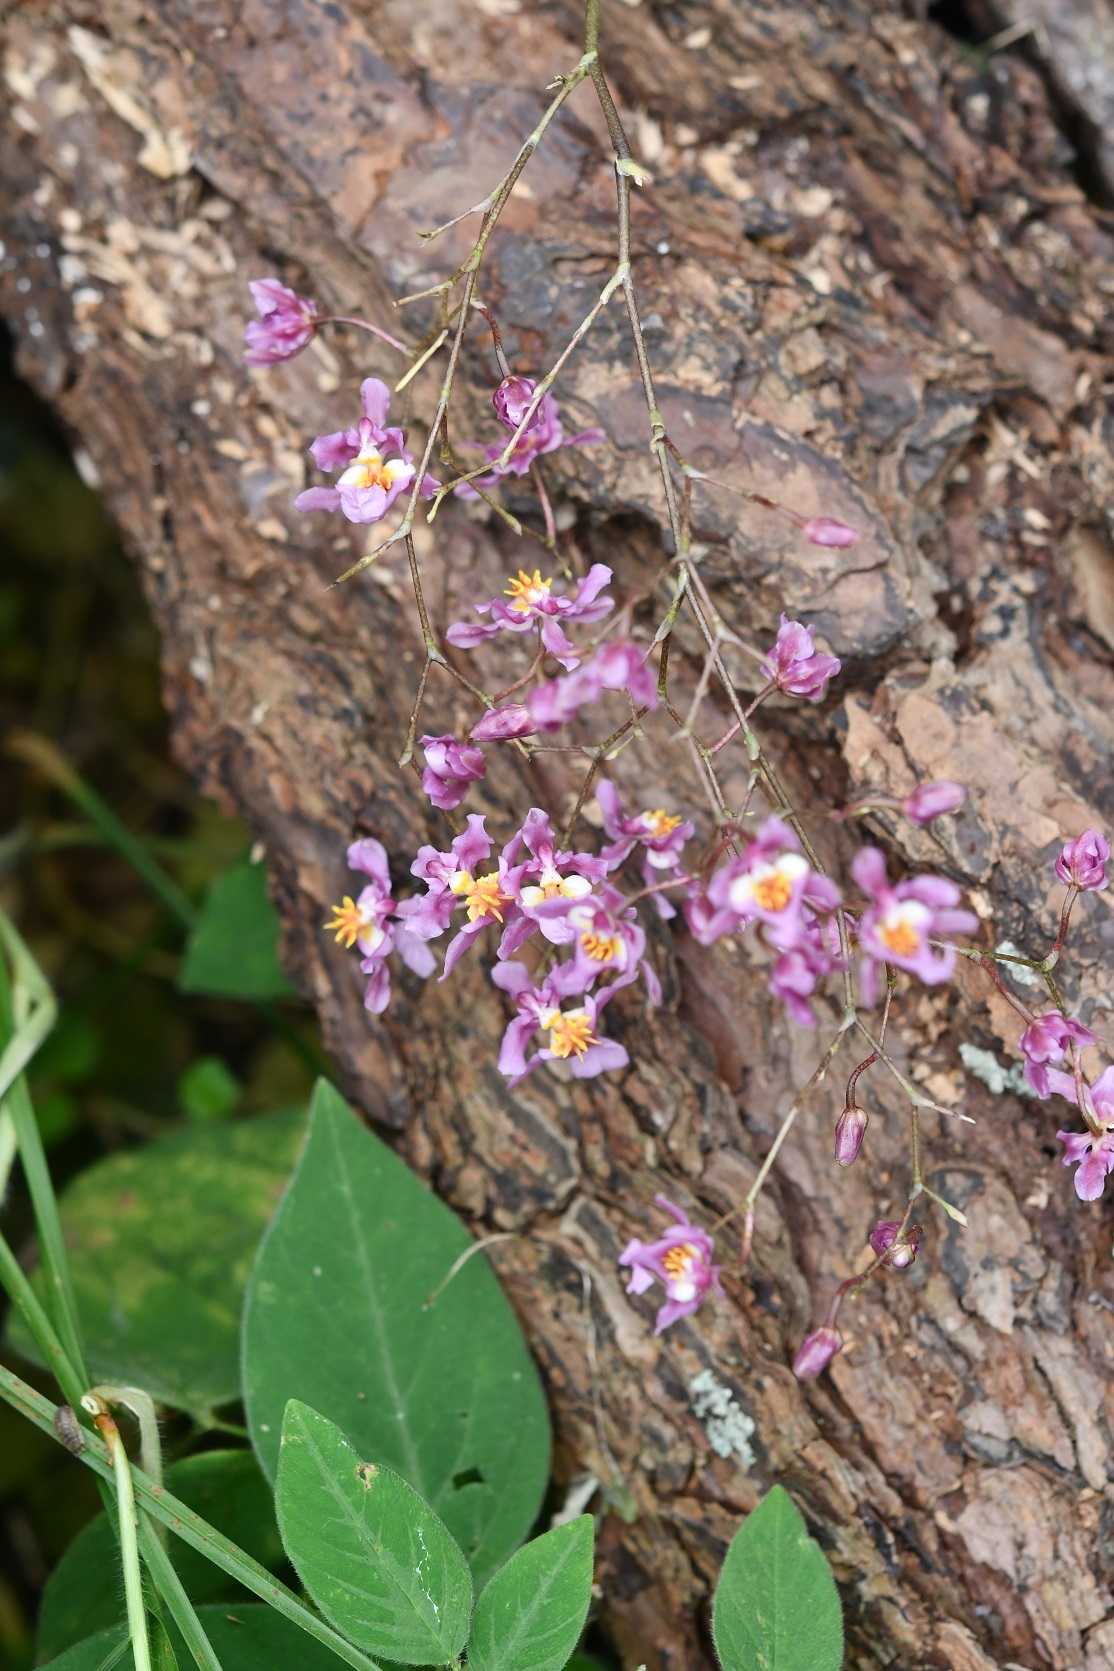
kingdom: Plantae
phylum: Tracheophyta
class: Liliopsida
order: Asparagales
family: Orchidaceae
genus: Oncidium
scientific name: Oncidium sotoanum
